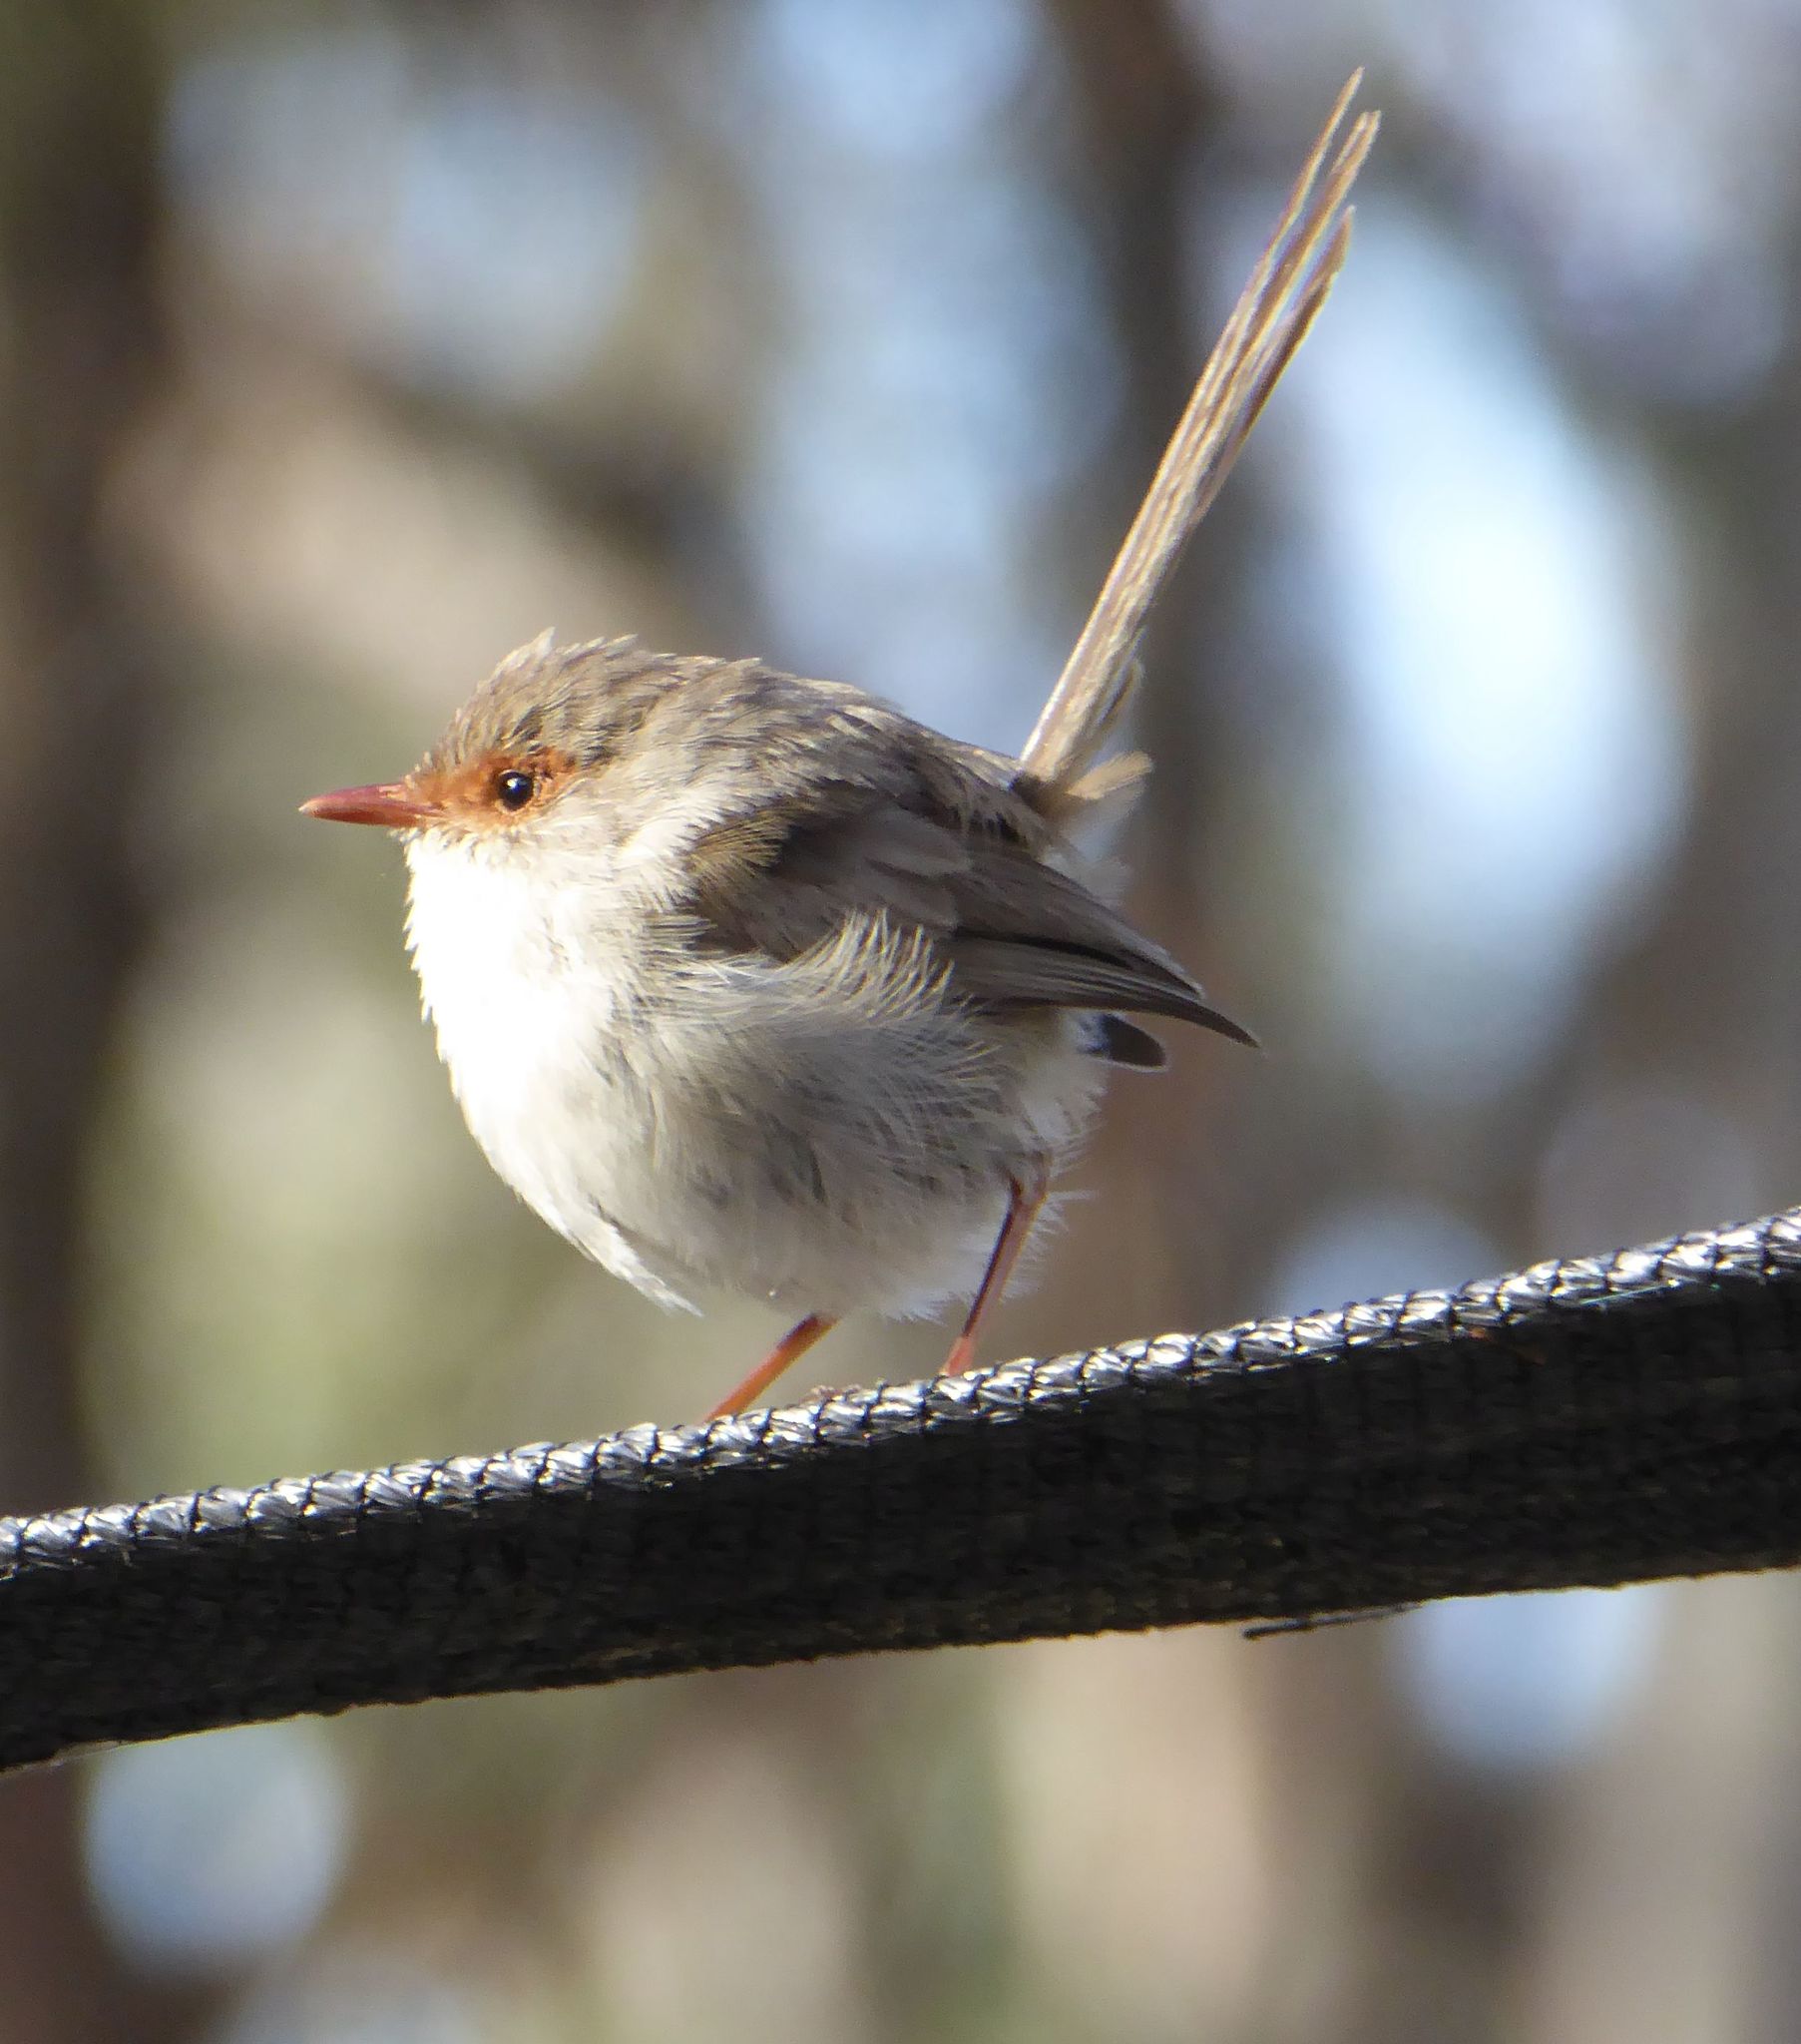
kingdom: Animalia
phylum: Chordata
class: Aves
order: Passeriformes
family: Maluridae
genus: Malurus
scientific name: Malurus cyaneus
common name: Superb fairywren
